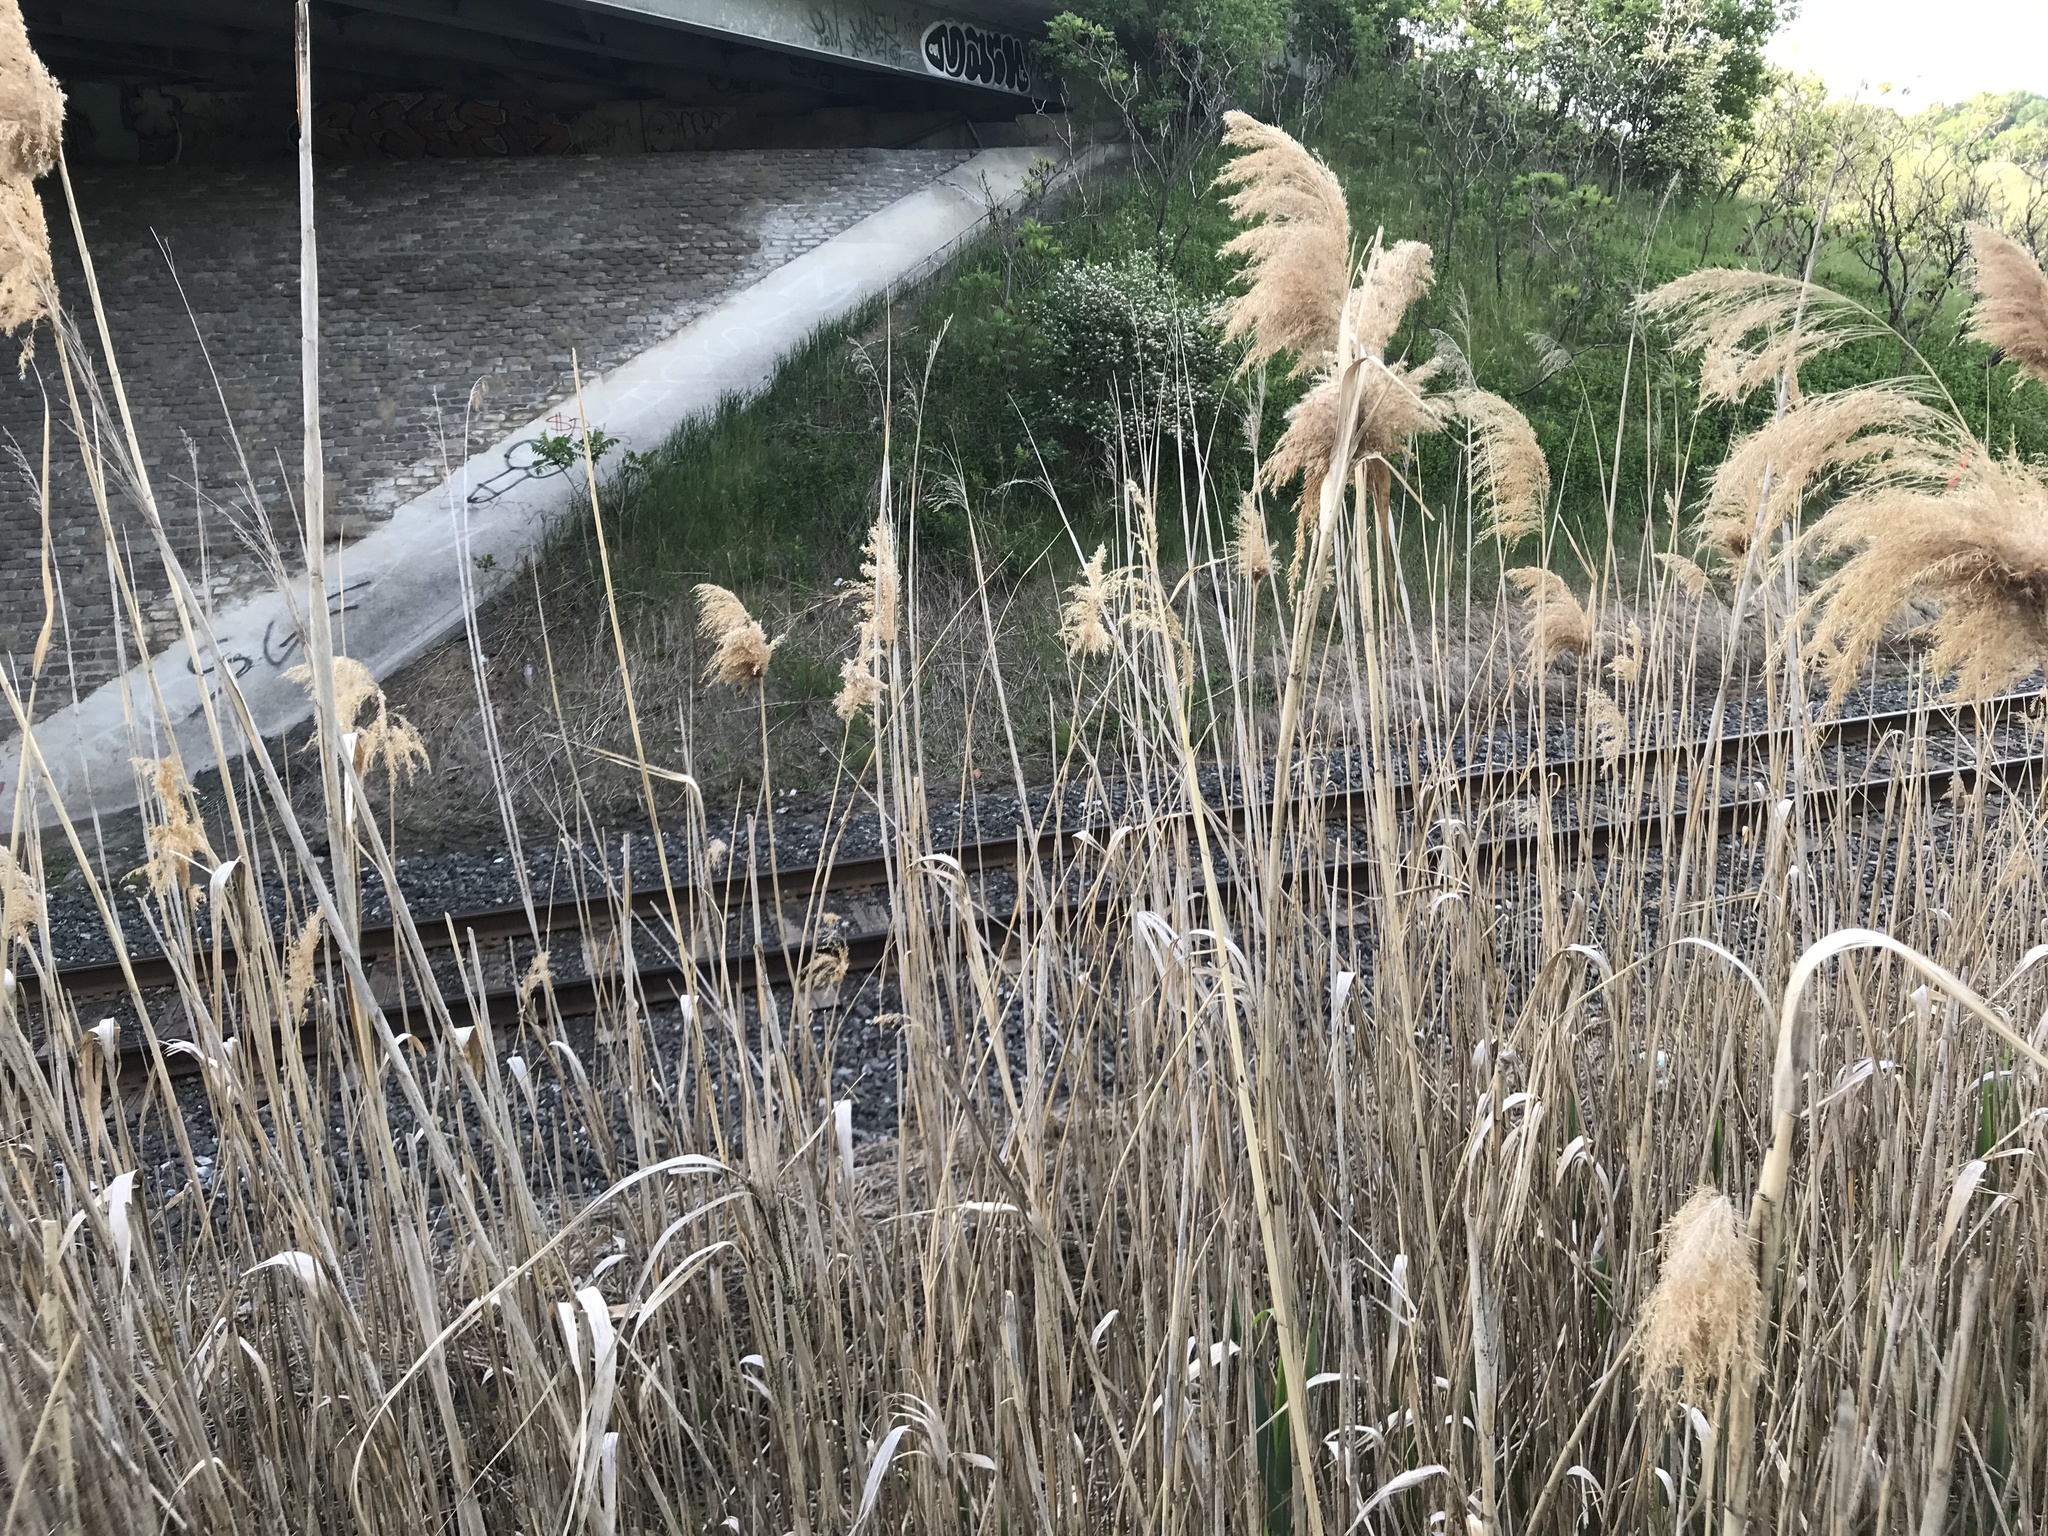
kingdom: Plantae
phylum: Tracheophyta
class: Liliopsida
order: Poales
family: Poaceae
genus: Phragmites
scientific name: Phragmites australis
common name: Common reed
